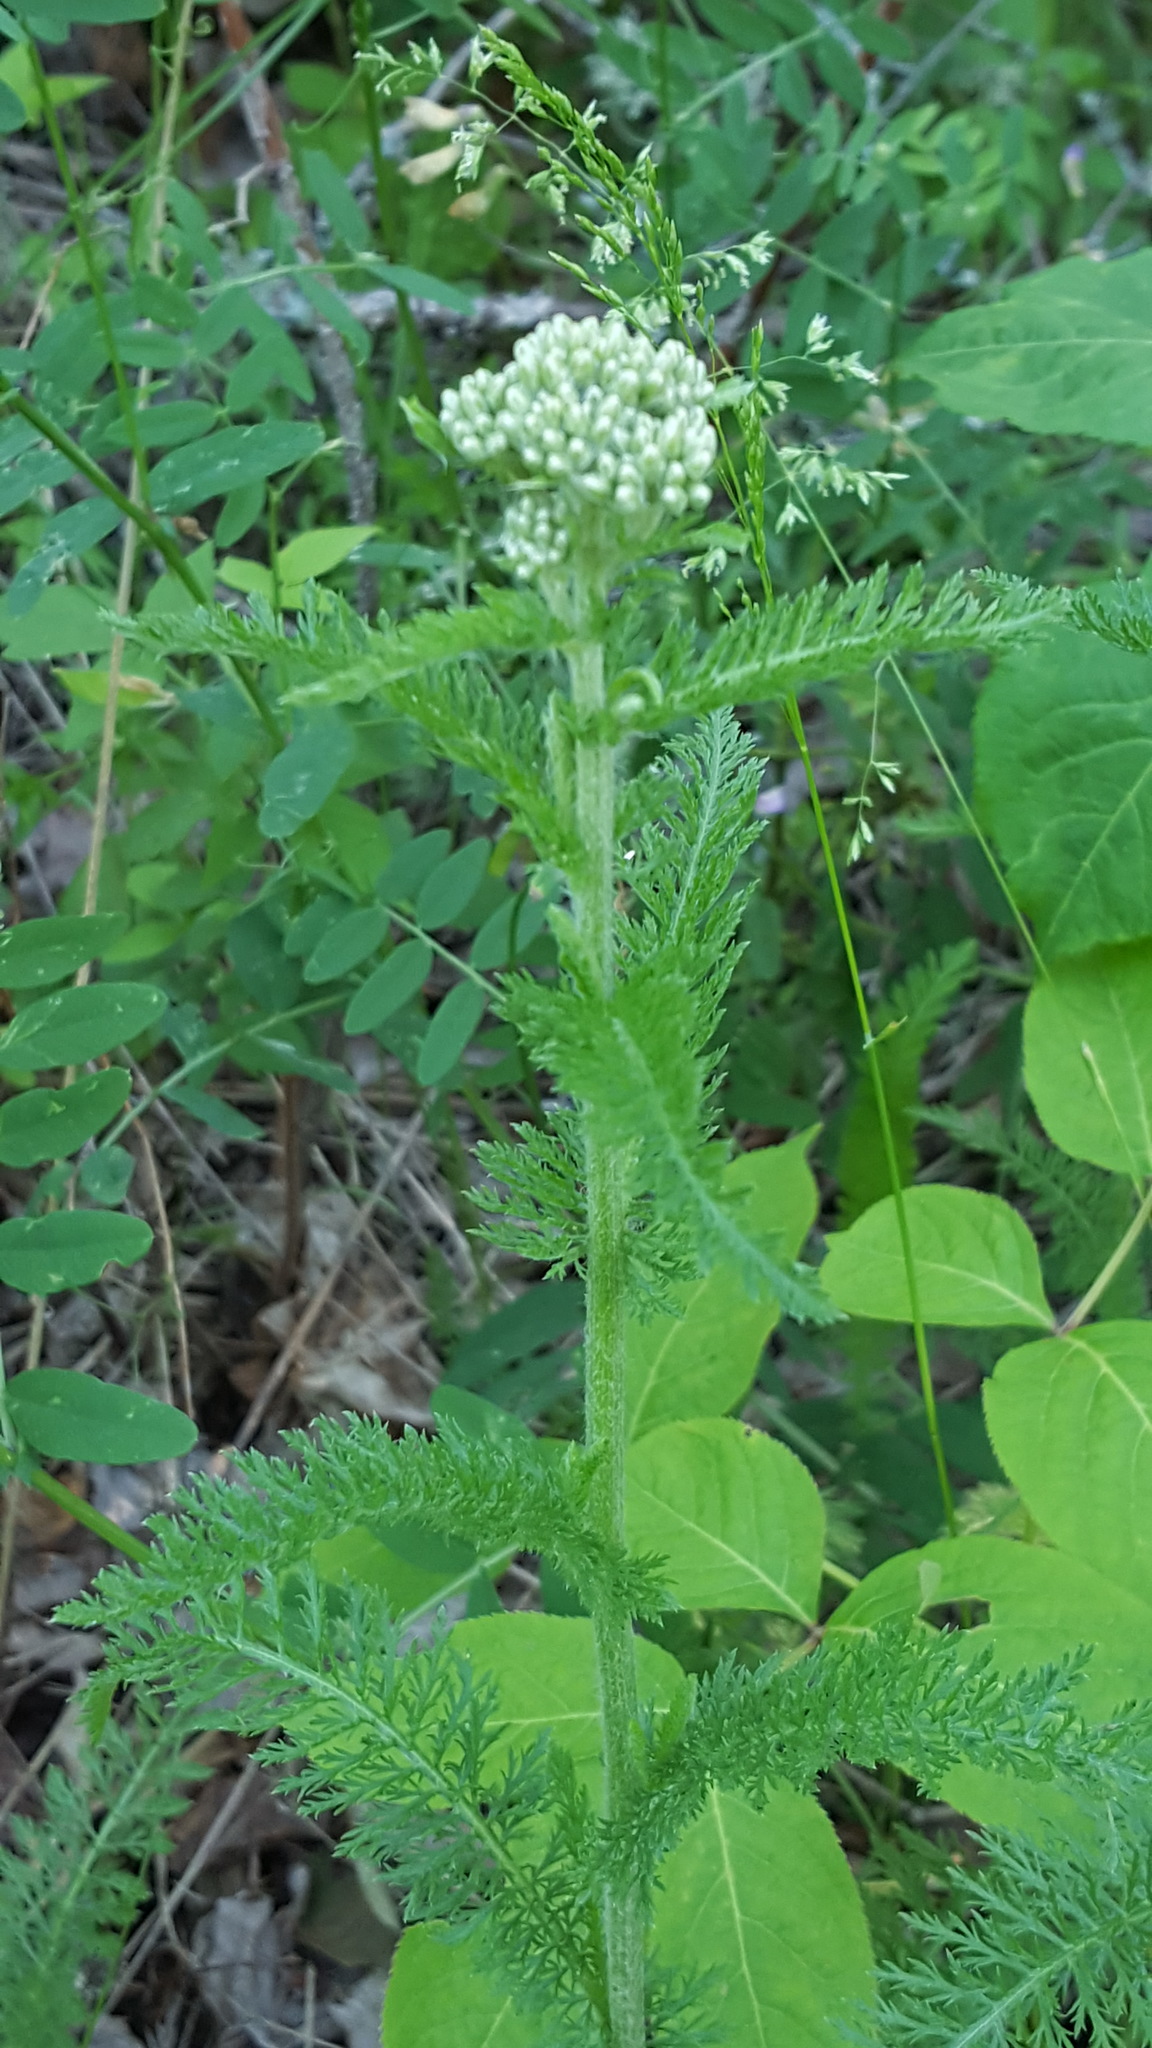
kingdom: Plantae
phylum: Tracheophyta
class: Magnoliopsida
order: Asterales
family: Asteraceae
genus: Achillea
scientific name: Achillea millefolium
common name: Yarrow
